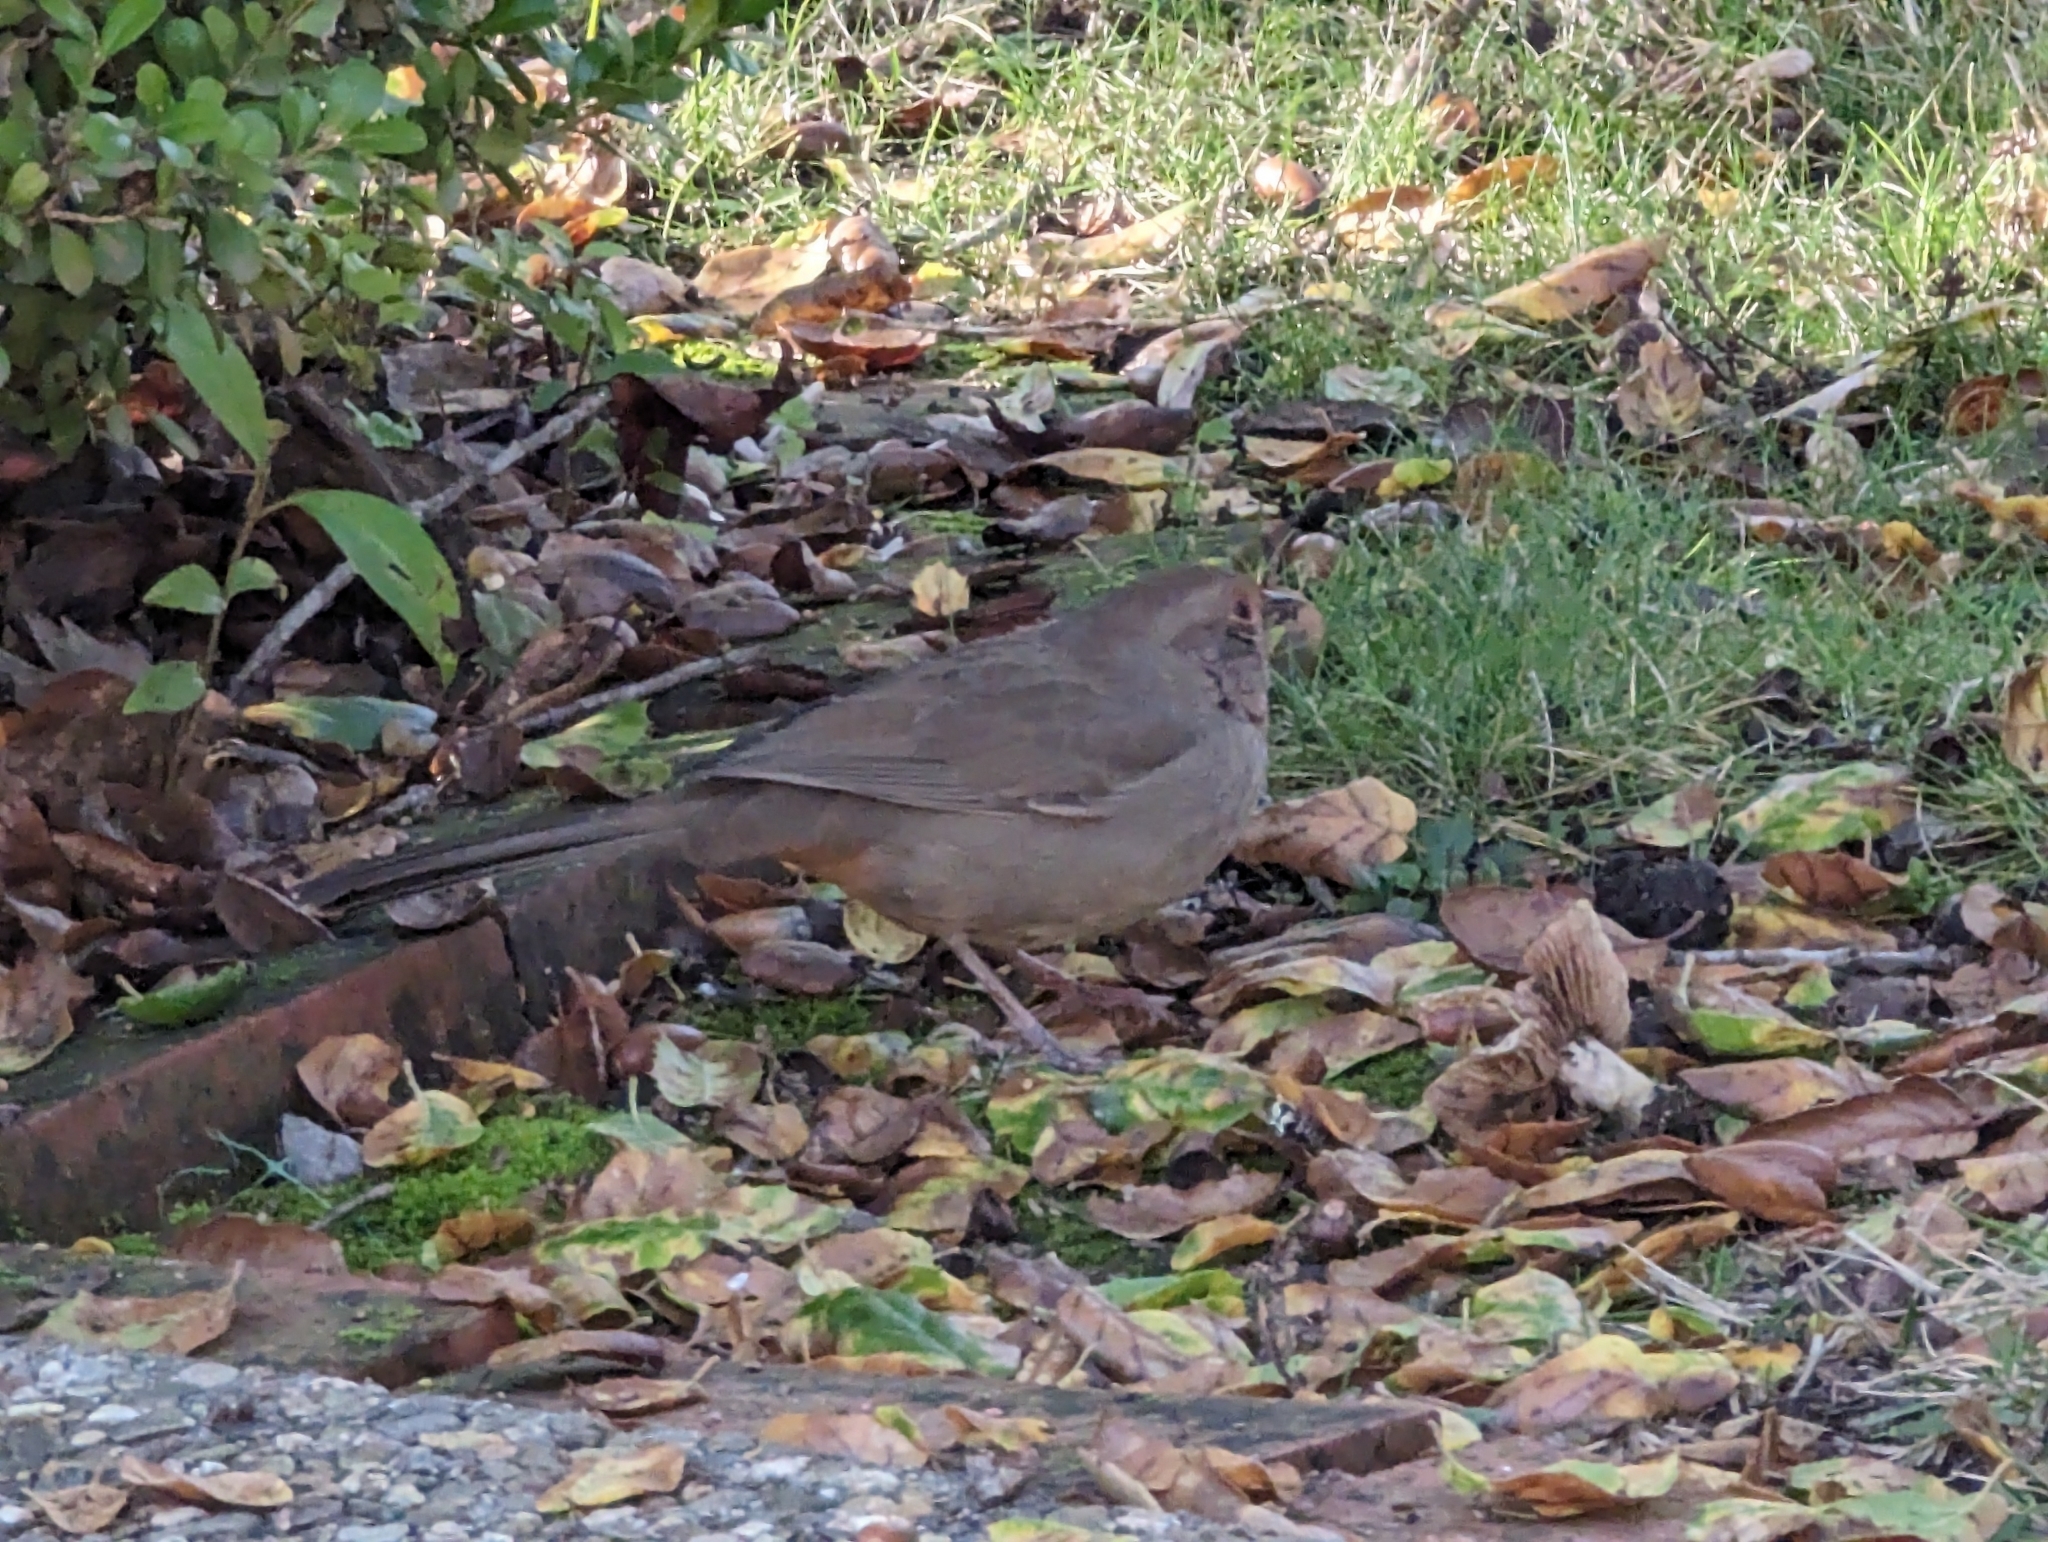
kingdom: Animalia
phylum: Chordata
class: Aves
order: Passeriformes
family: Passerellidae
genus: Melozone
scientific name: Melozone crissalis
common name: California towhee
